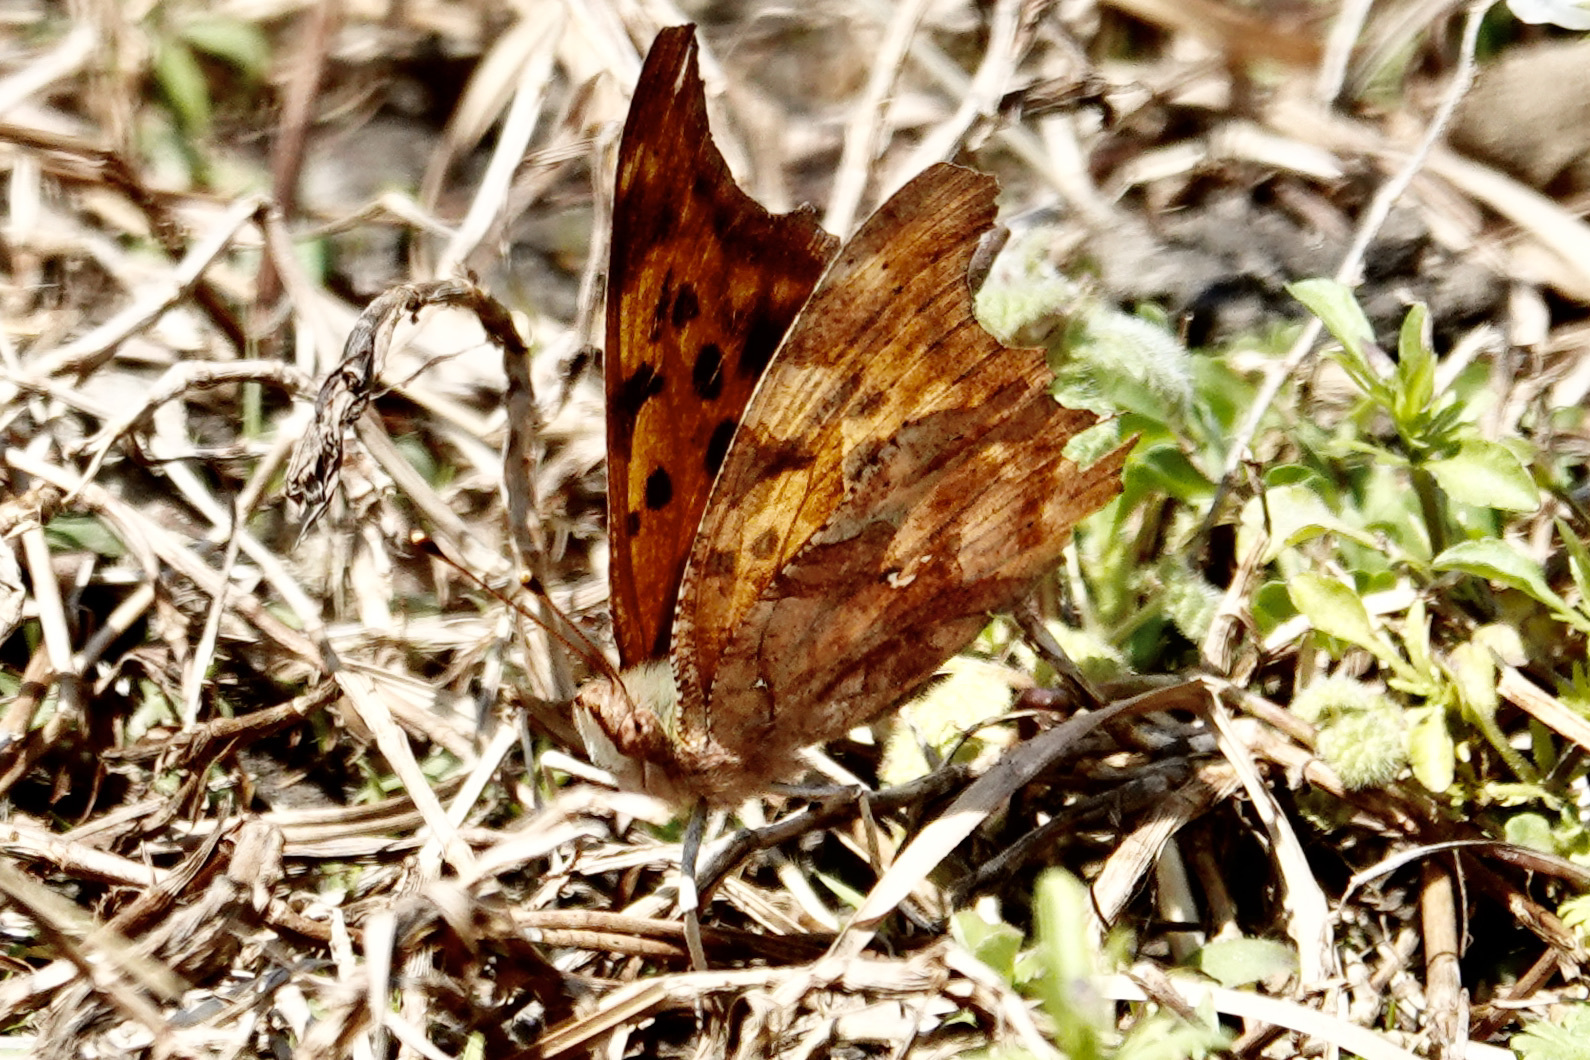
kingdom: Animalia
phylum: Arthropoda
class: Insecta
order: Lepidoptera
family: Nymphalidae
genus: Polygonia
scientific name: Polygonia interrogationis
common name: Question mark
